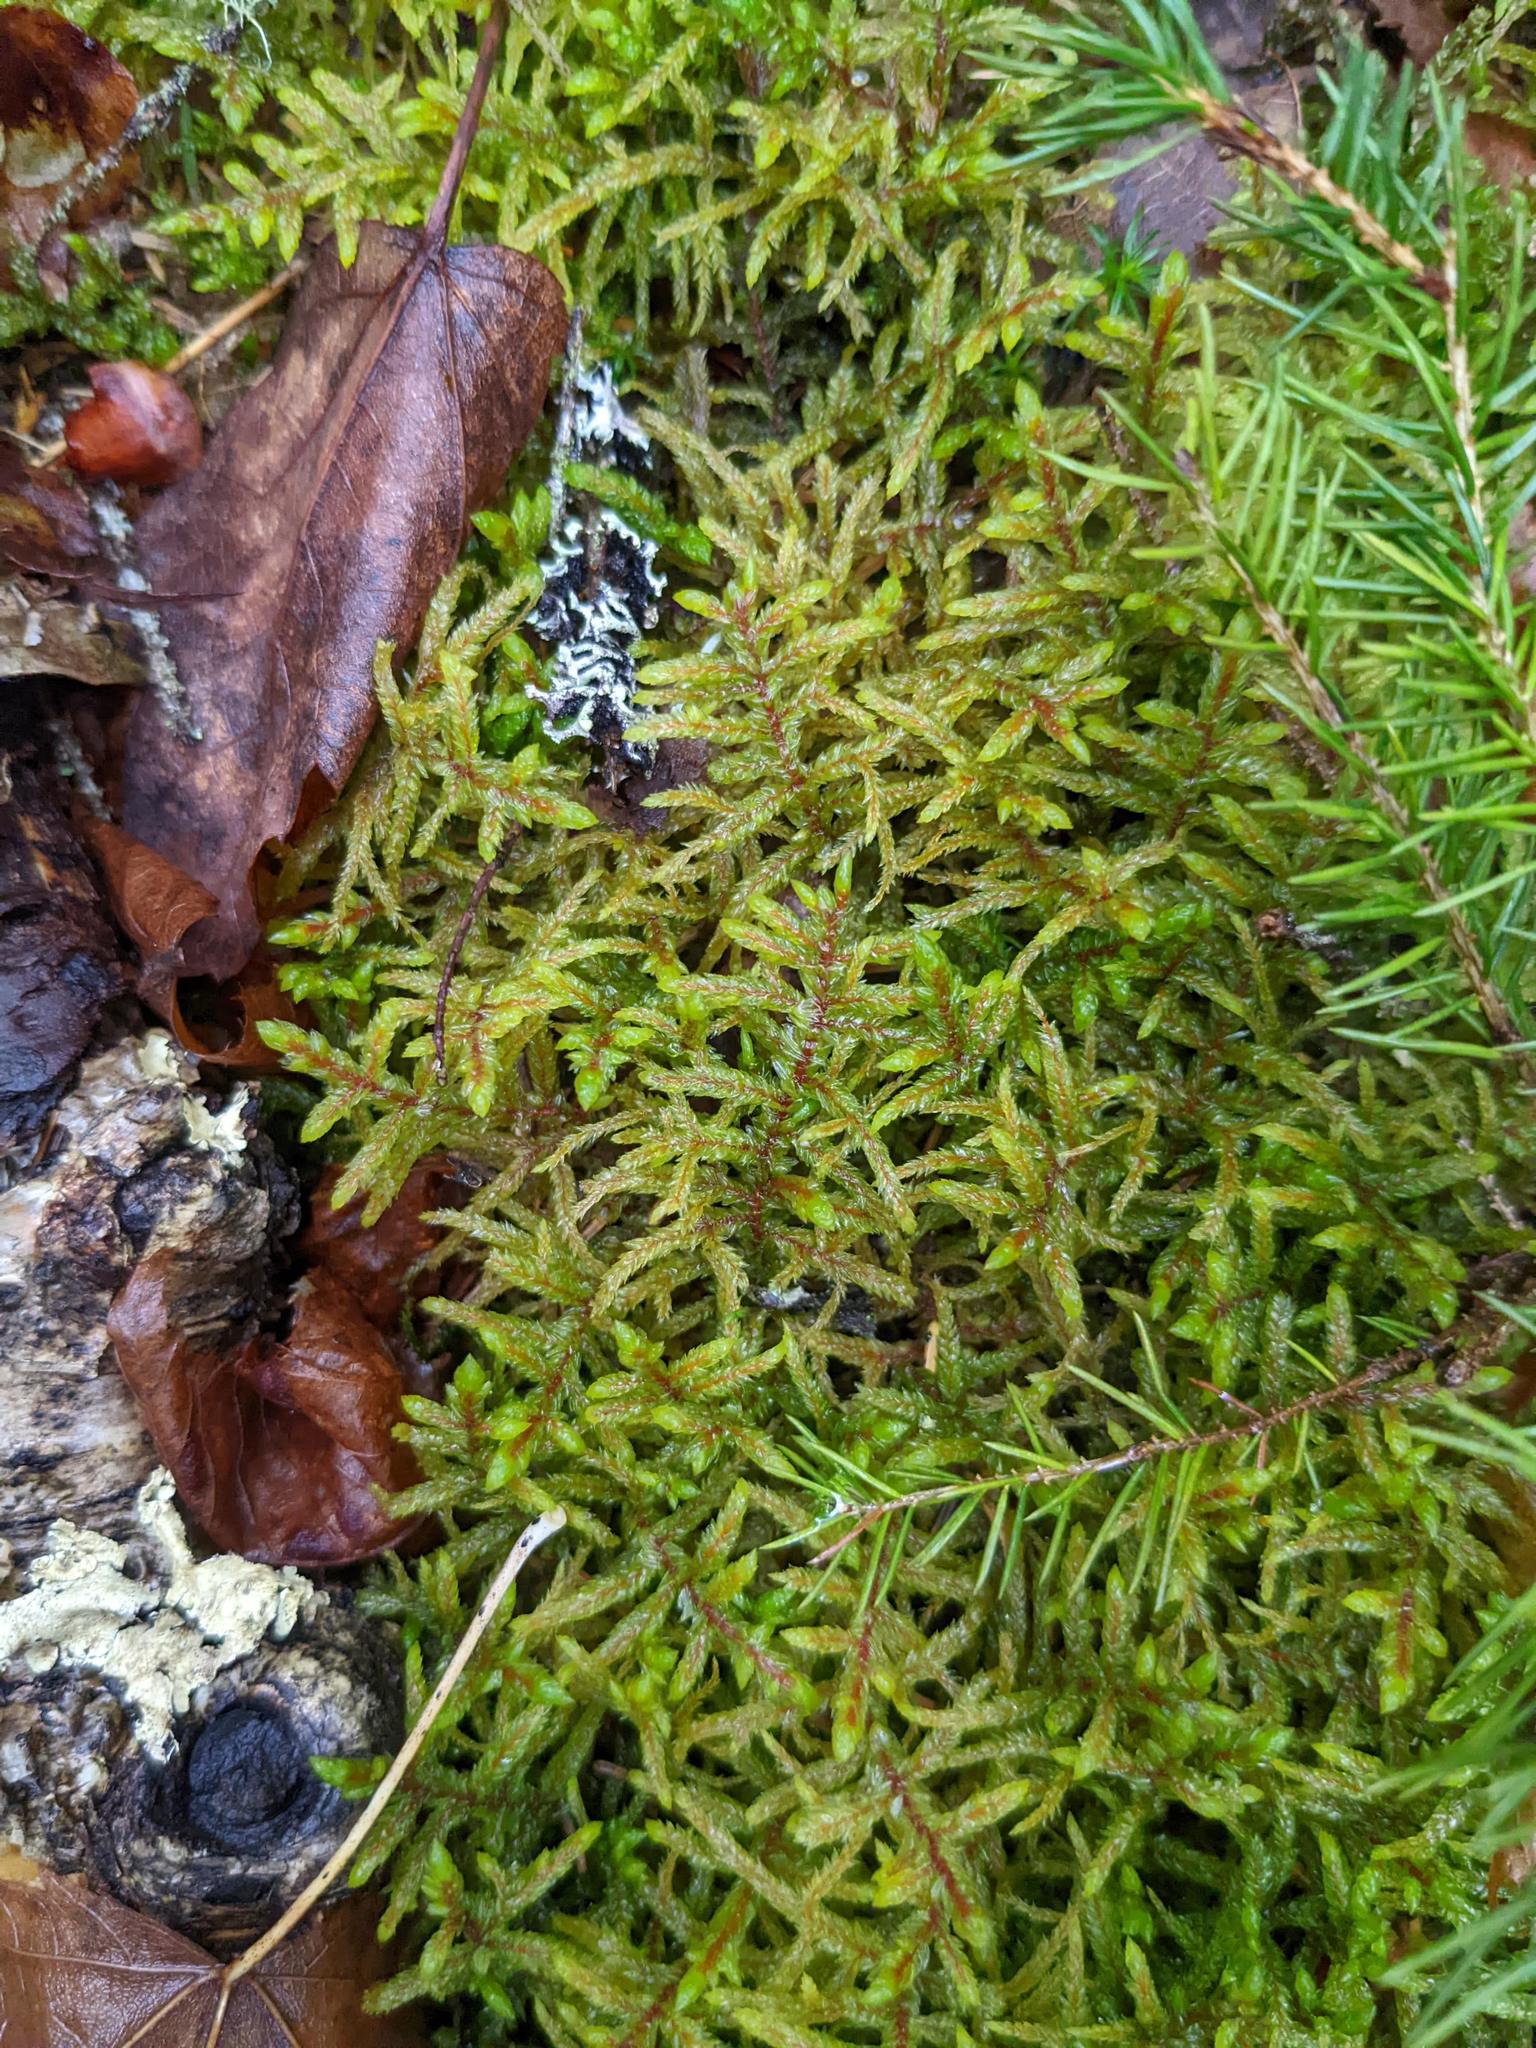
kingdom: Plantae
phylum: Bryophyta
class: Bryopsida
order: Hypnales
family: Hylocomiaceae
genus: Pleurozium
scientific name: Pleurozium schreberi
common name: Red-stemmed feather moss
